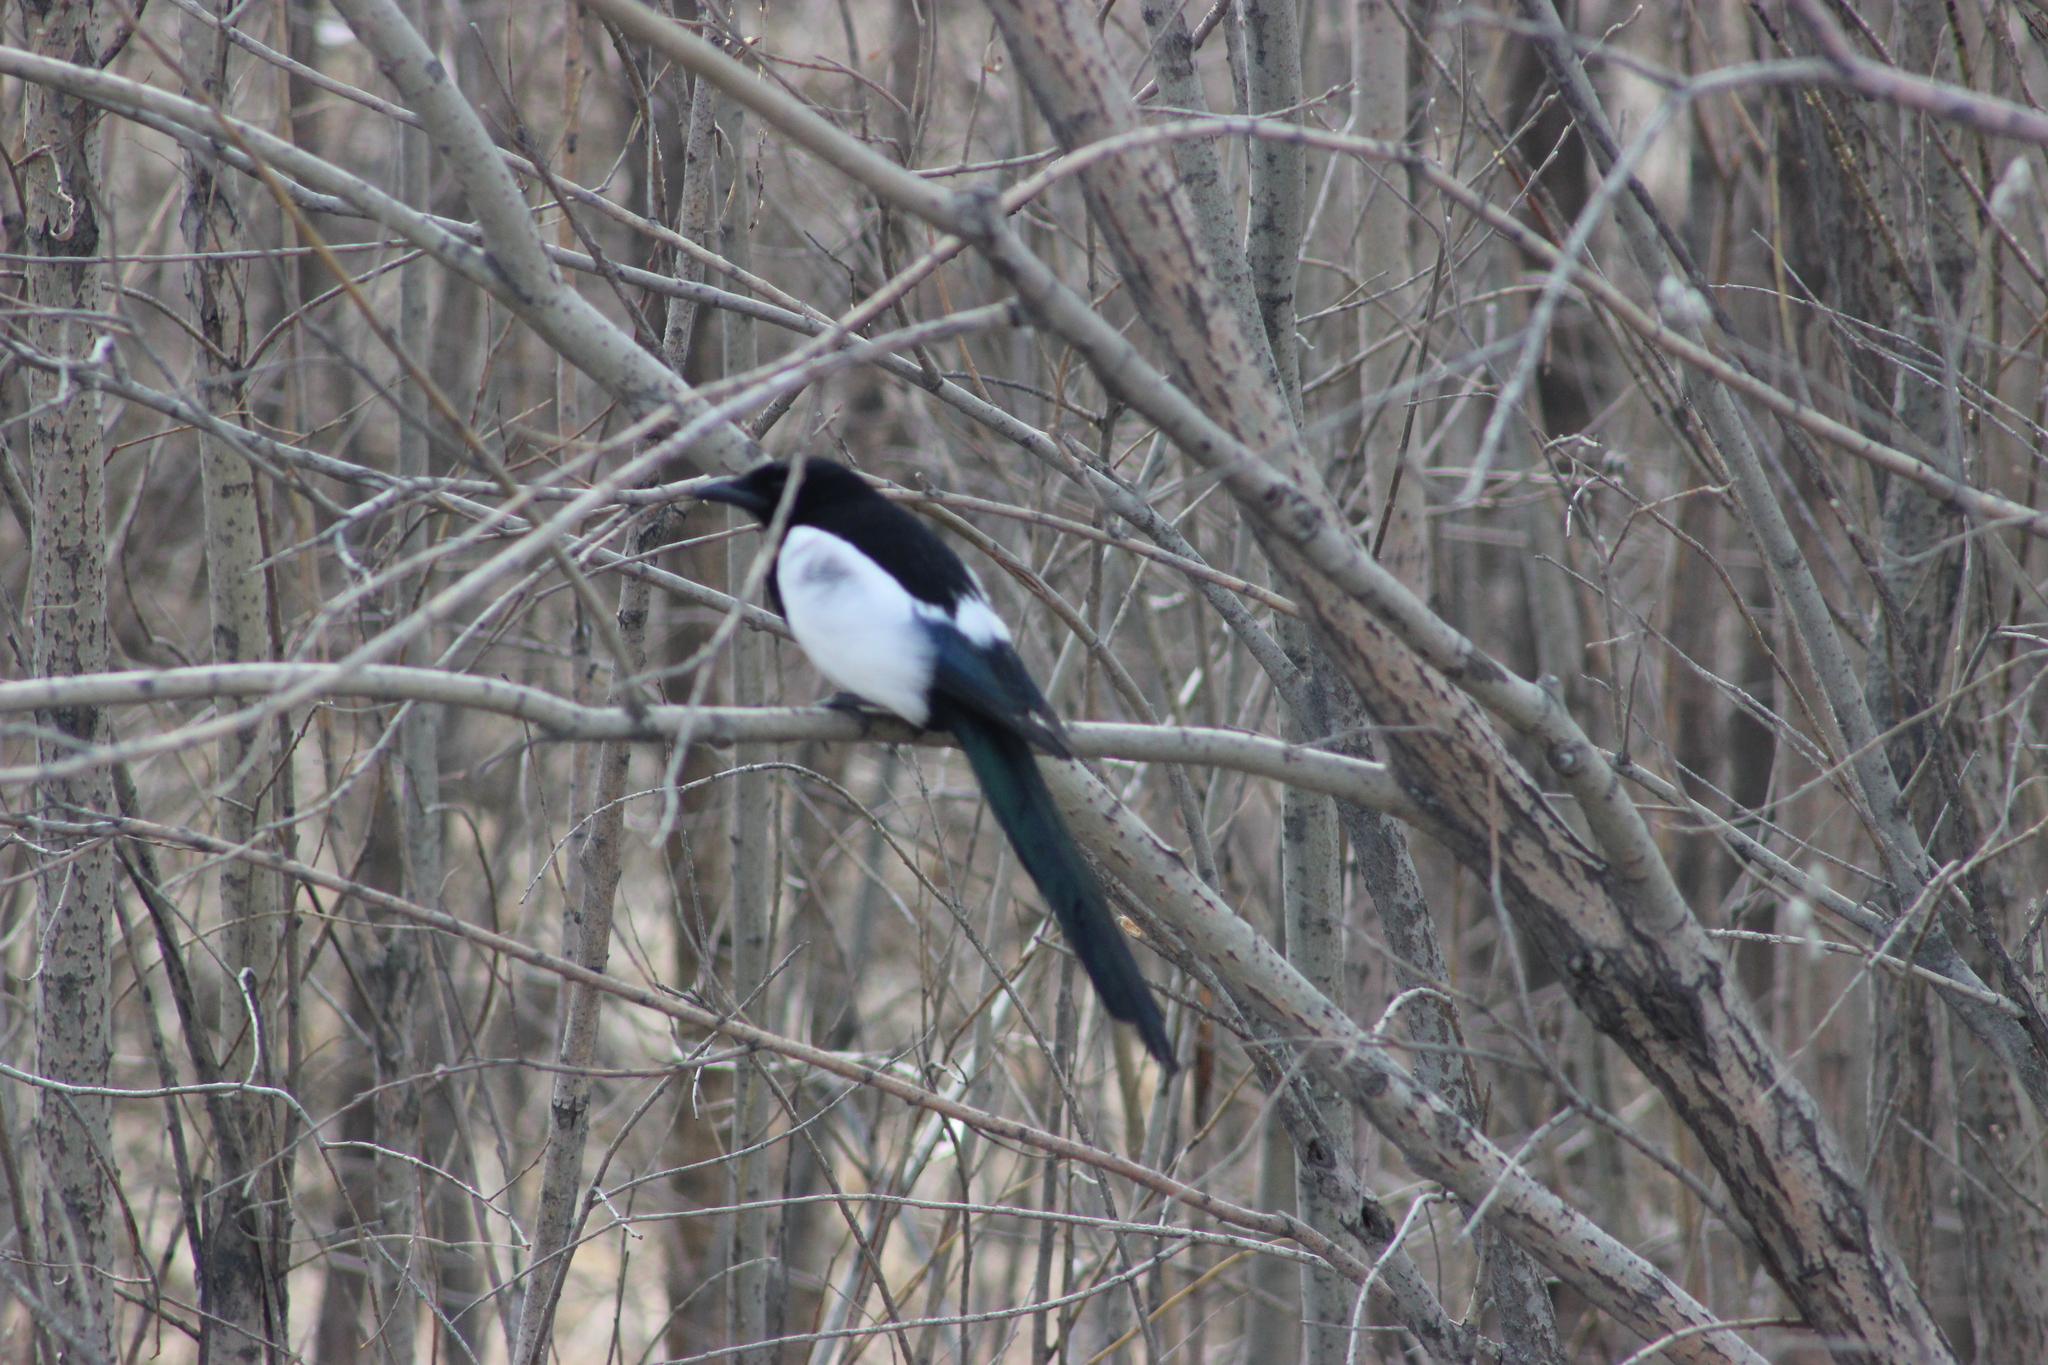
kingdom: Animalia
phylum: Chordata
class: Aves
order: Passeriformes
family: Corvidae
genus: Pica
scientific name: Pica pica
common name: Eurasian magpie
